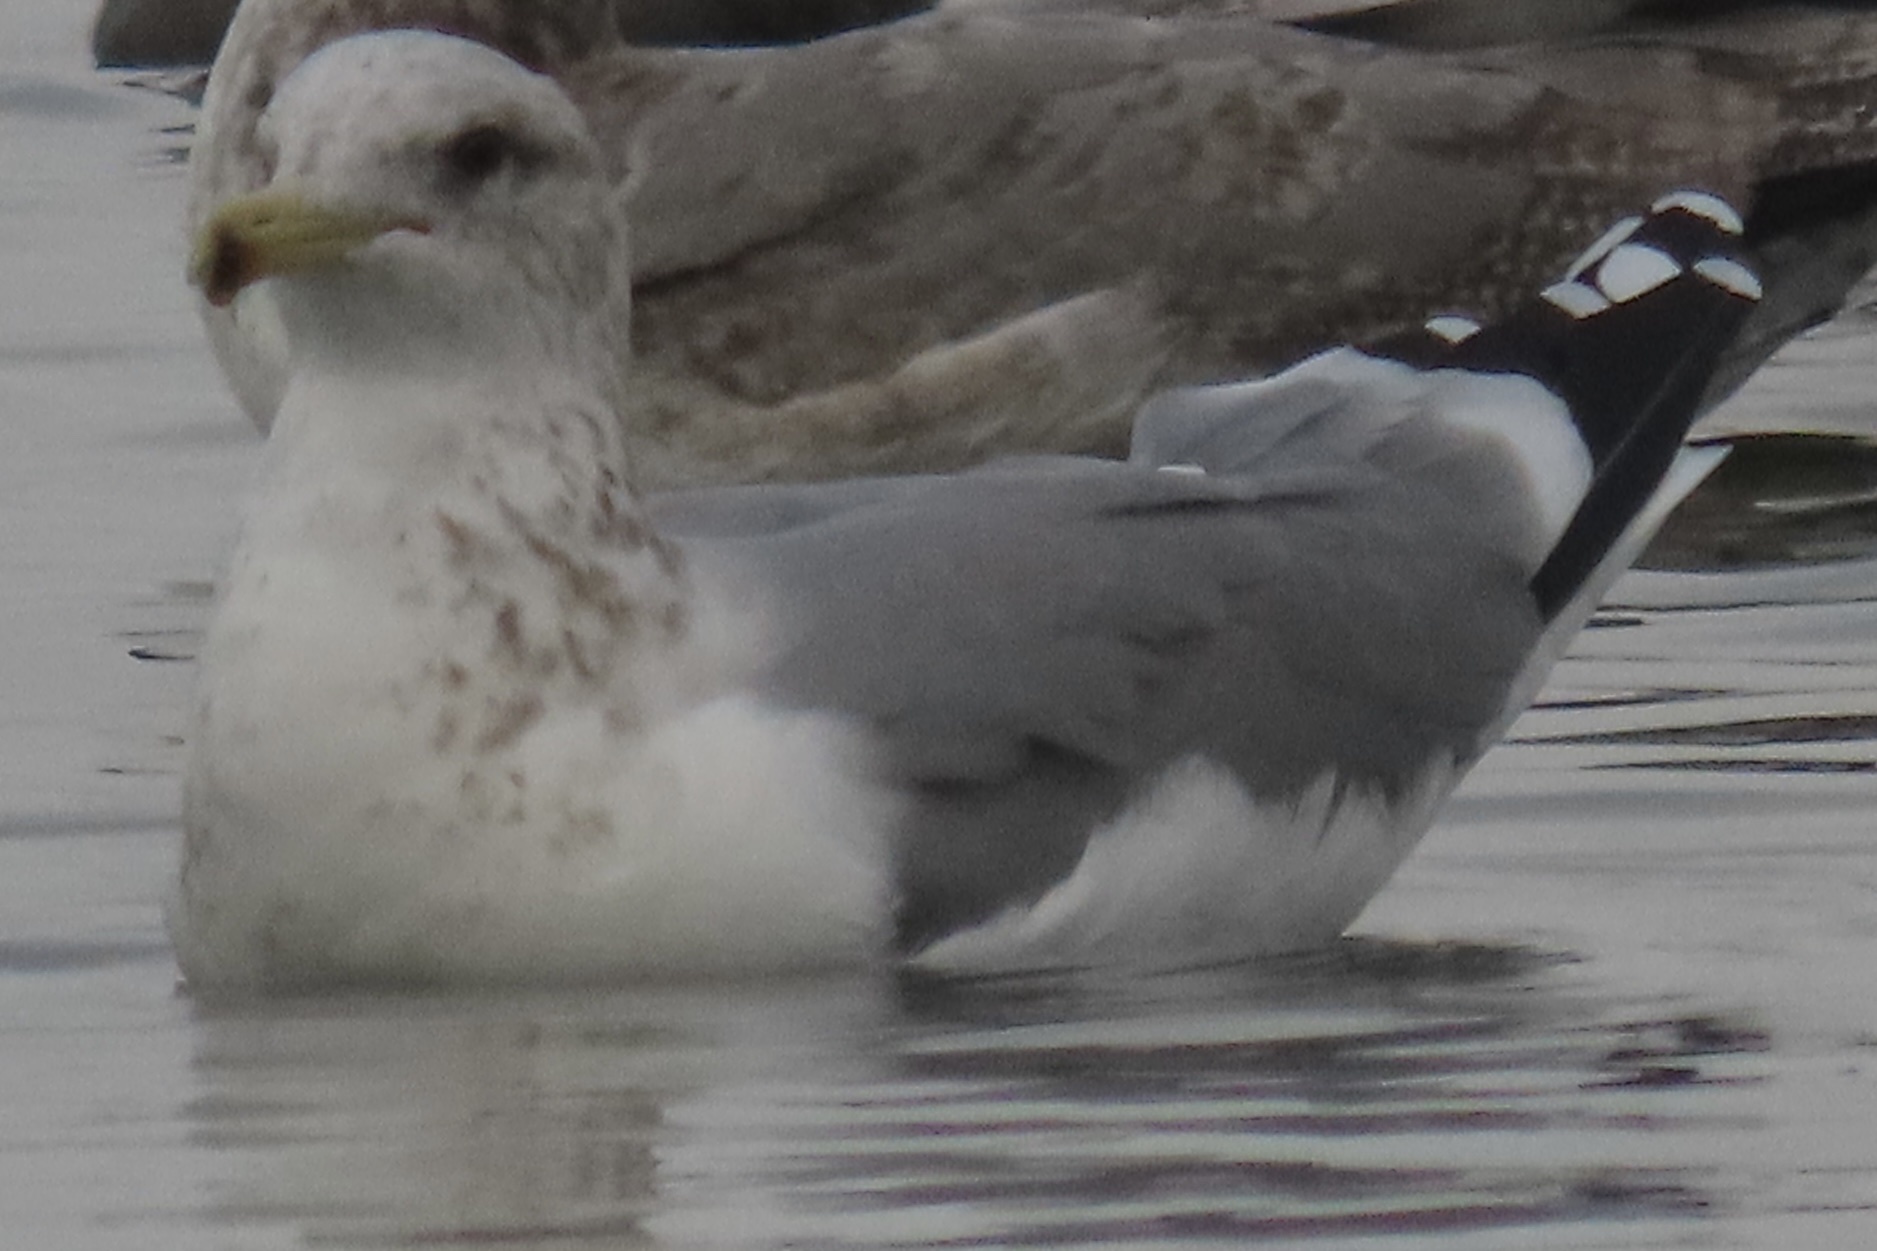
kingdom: Animalia
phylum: Chordata
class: Aves
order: Charadriiformes
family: Laridae
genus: Larus
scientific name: Larus californicus
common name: California gull
